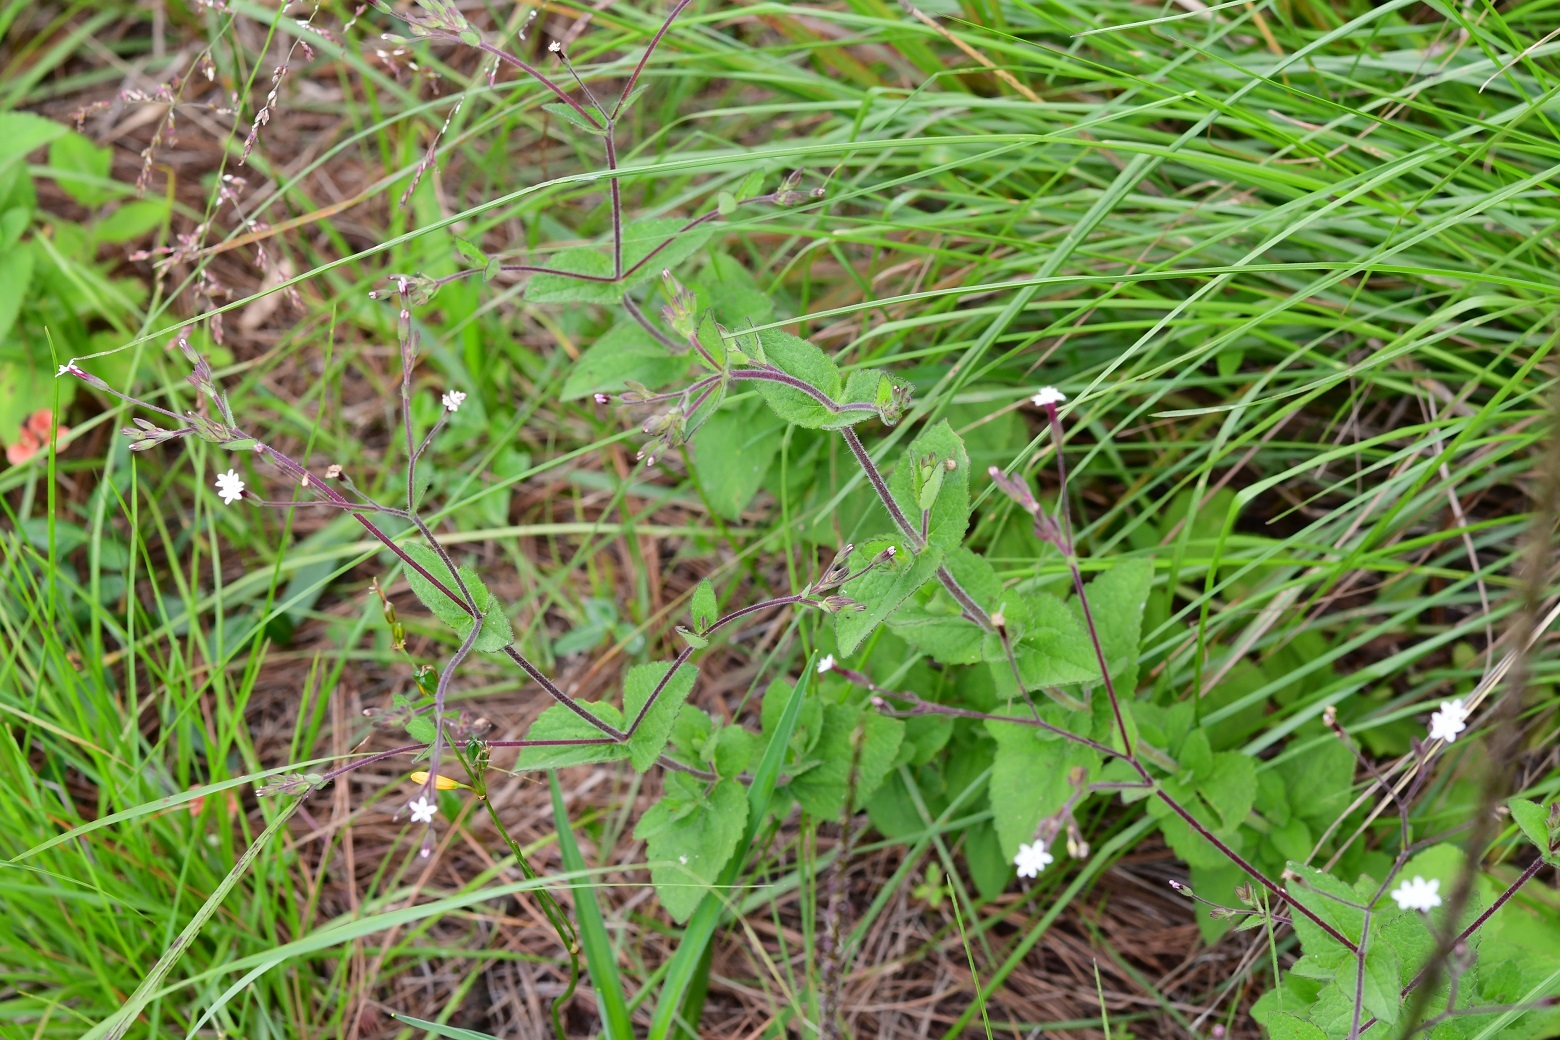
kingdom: Plantae
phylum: Tracheophyta
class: Magnoliopsida
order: Asterales
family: Asteraceae
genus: Stevia
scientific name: Stevia elatior
